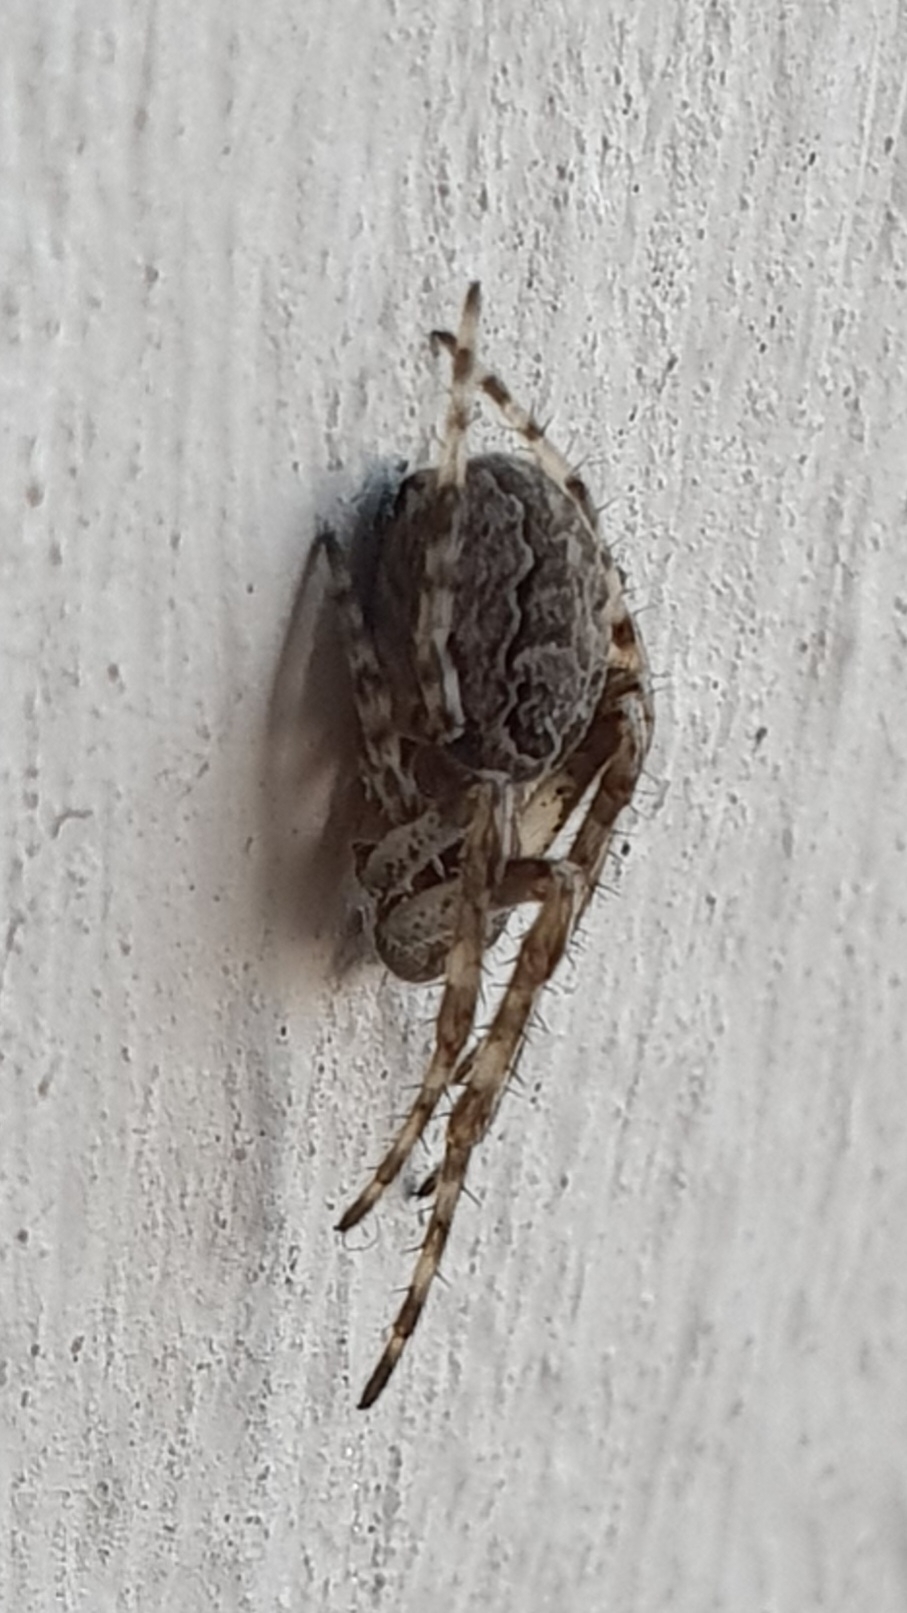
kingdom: Animalia
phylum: Arthropoda
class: Arachnida
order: Araneae
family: Araneidae
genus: Larinioides
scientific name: Larinioides sclopetarius
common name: Bridge orbweaver
